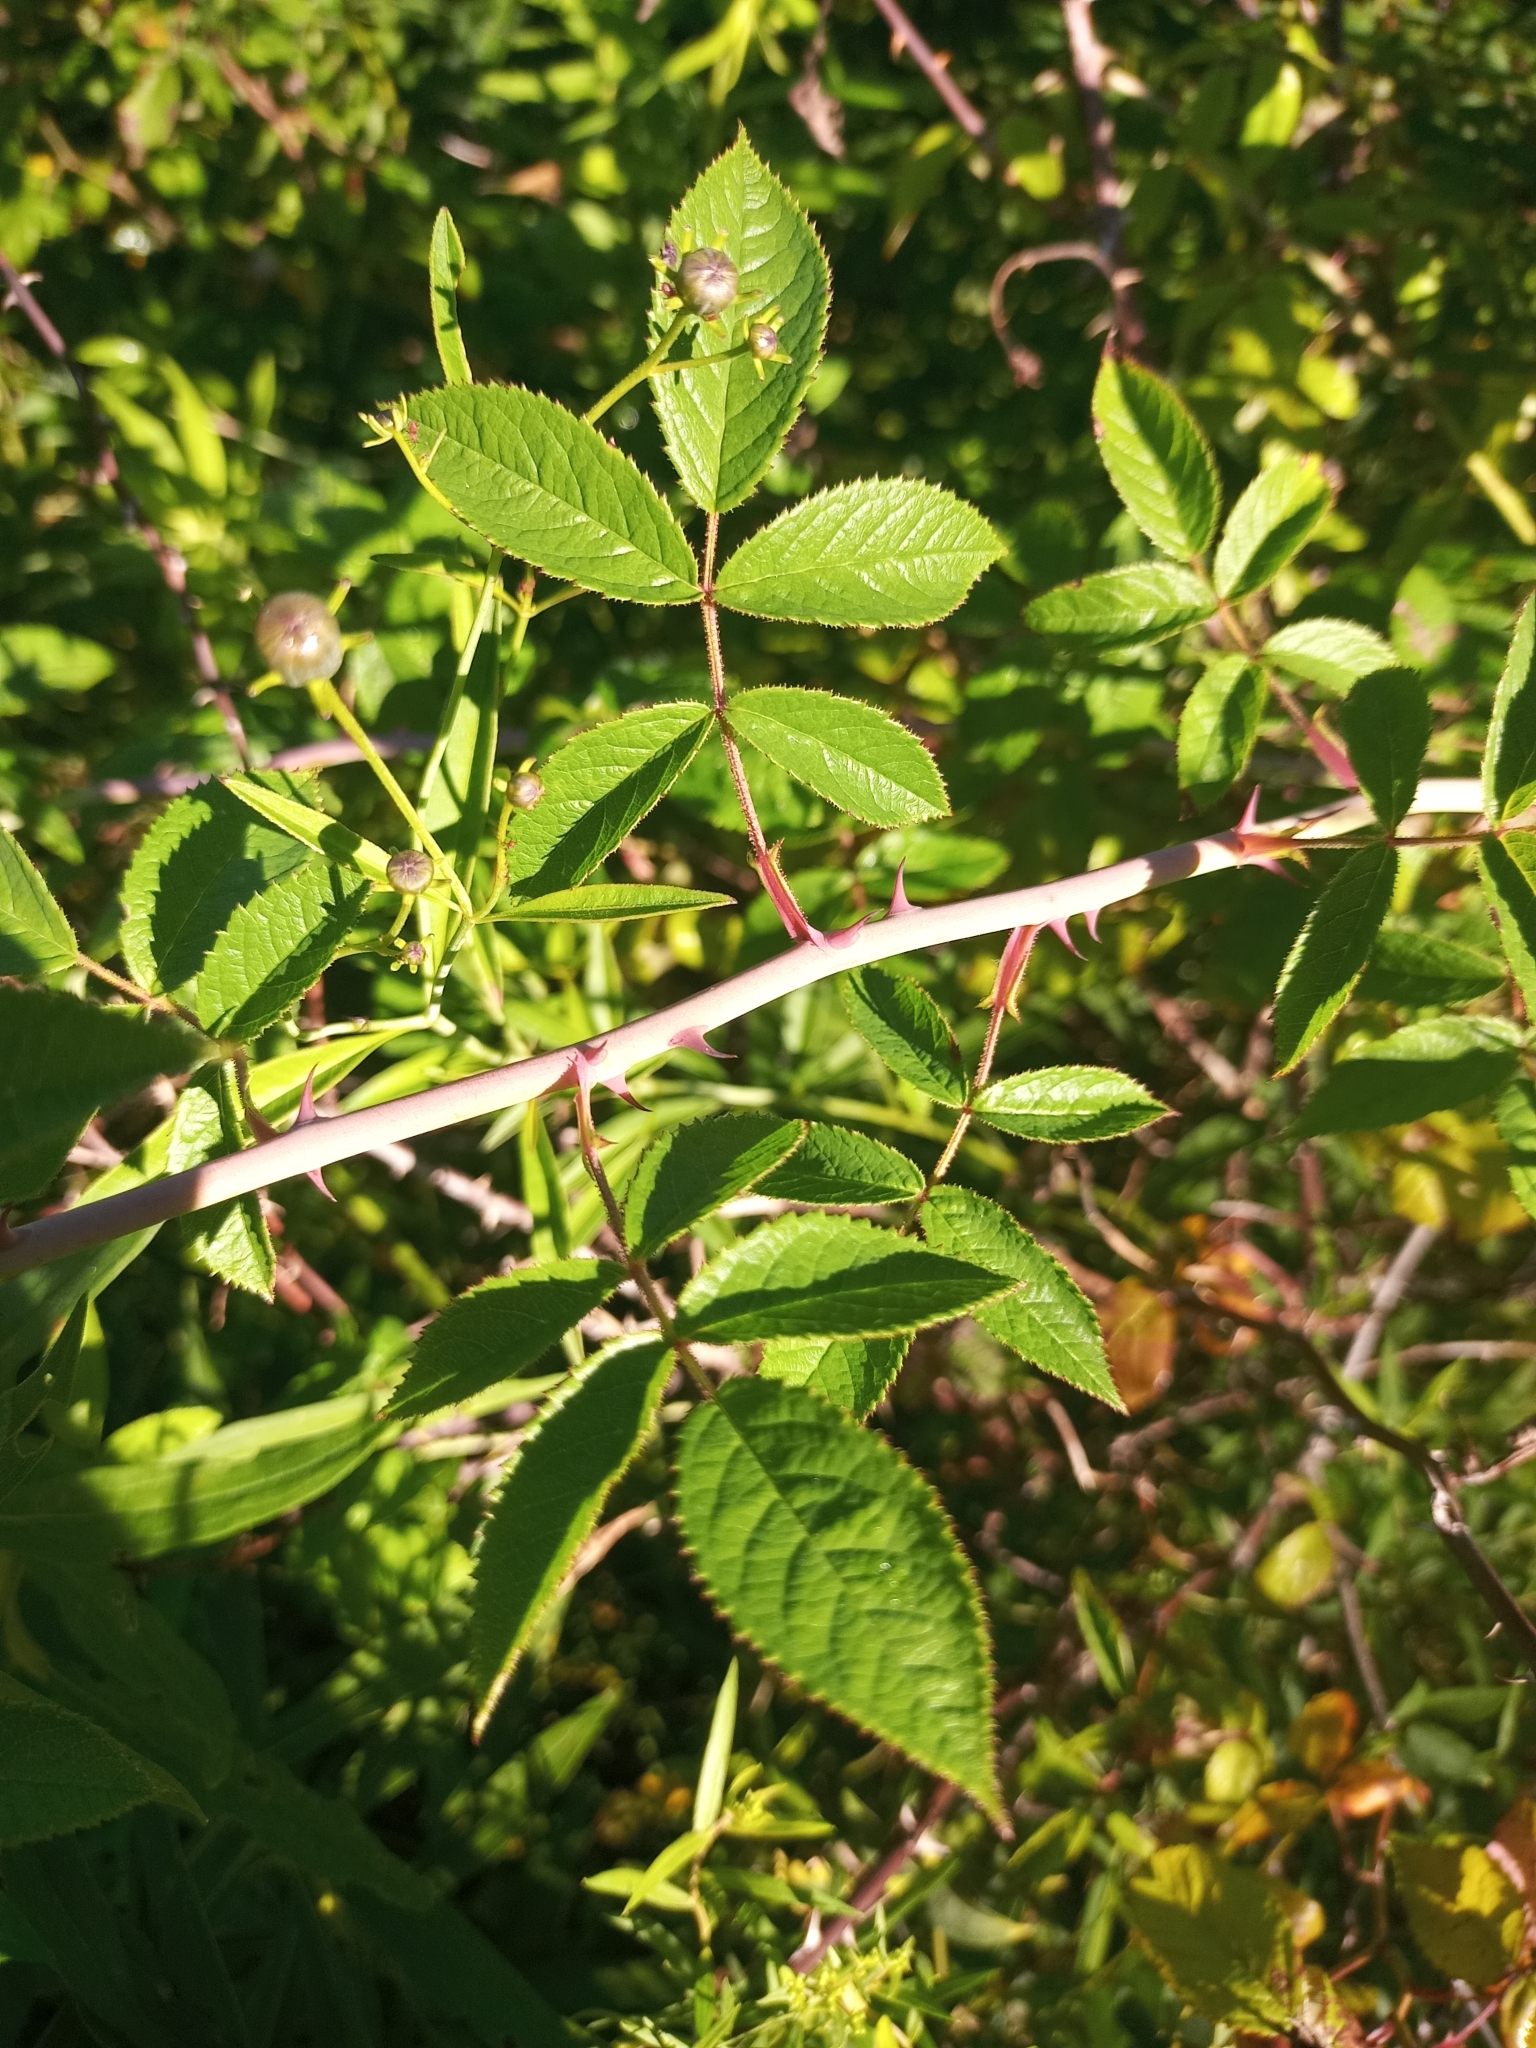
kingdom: Plantae
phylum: Tracheophyta
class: Magnoliopsida
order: Rosales
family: Rosaceae
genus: Rosa
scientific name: Rosa setigera
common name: Prairie rose
